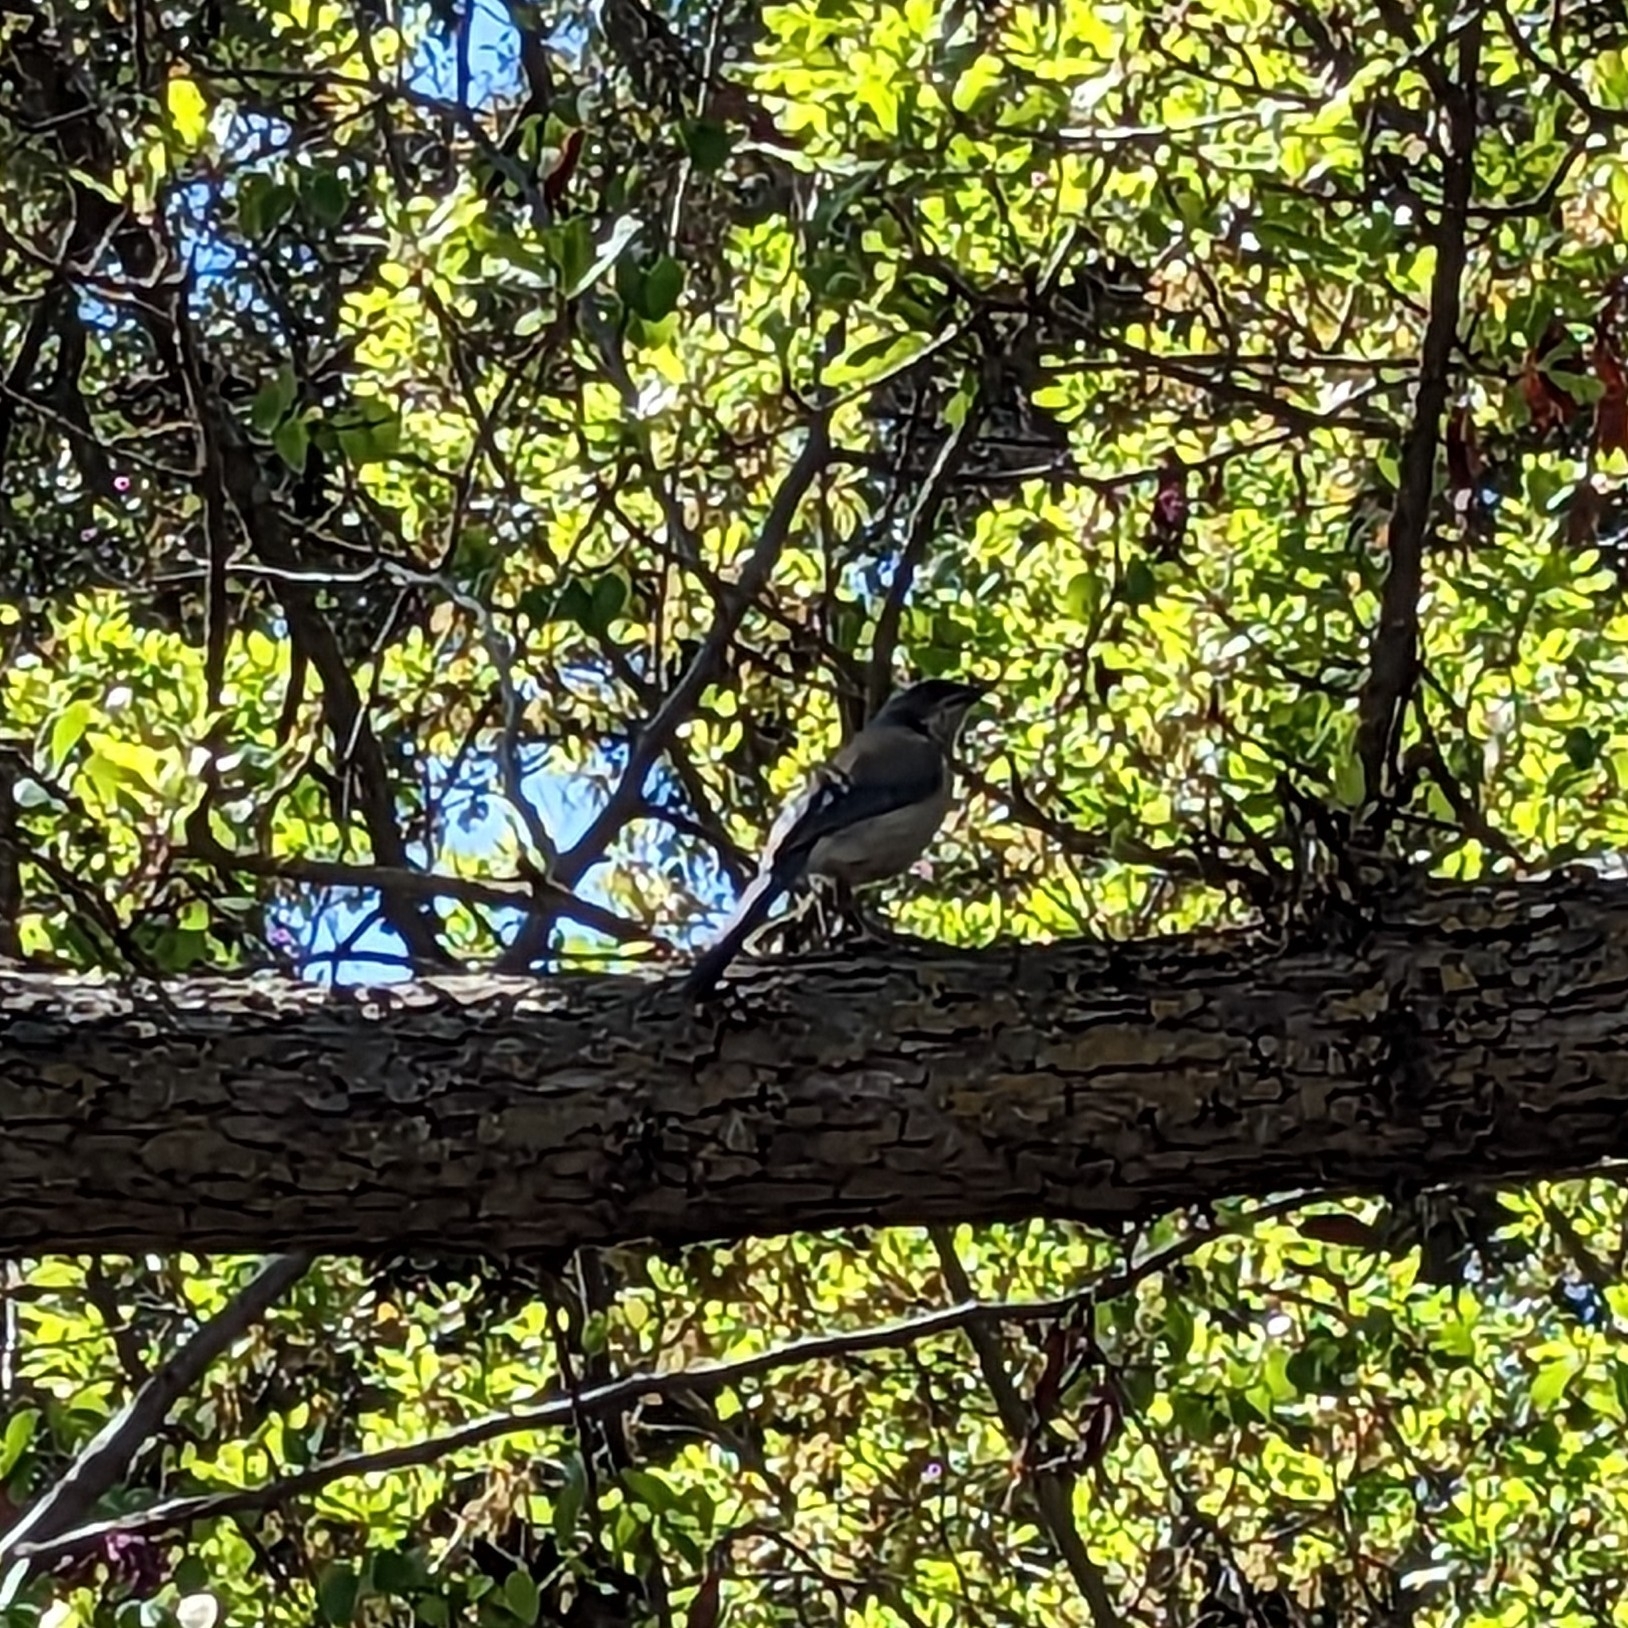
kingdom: Animalia
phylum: Chordata
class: Aves
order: Passeriformes
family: Corvidae
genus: Aphelocoma
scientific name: Aphelocoma californica
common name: California scrub-jay
